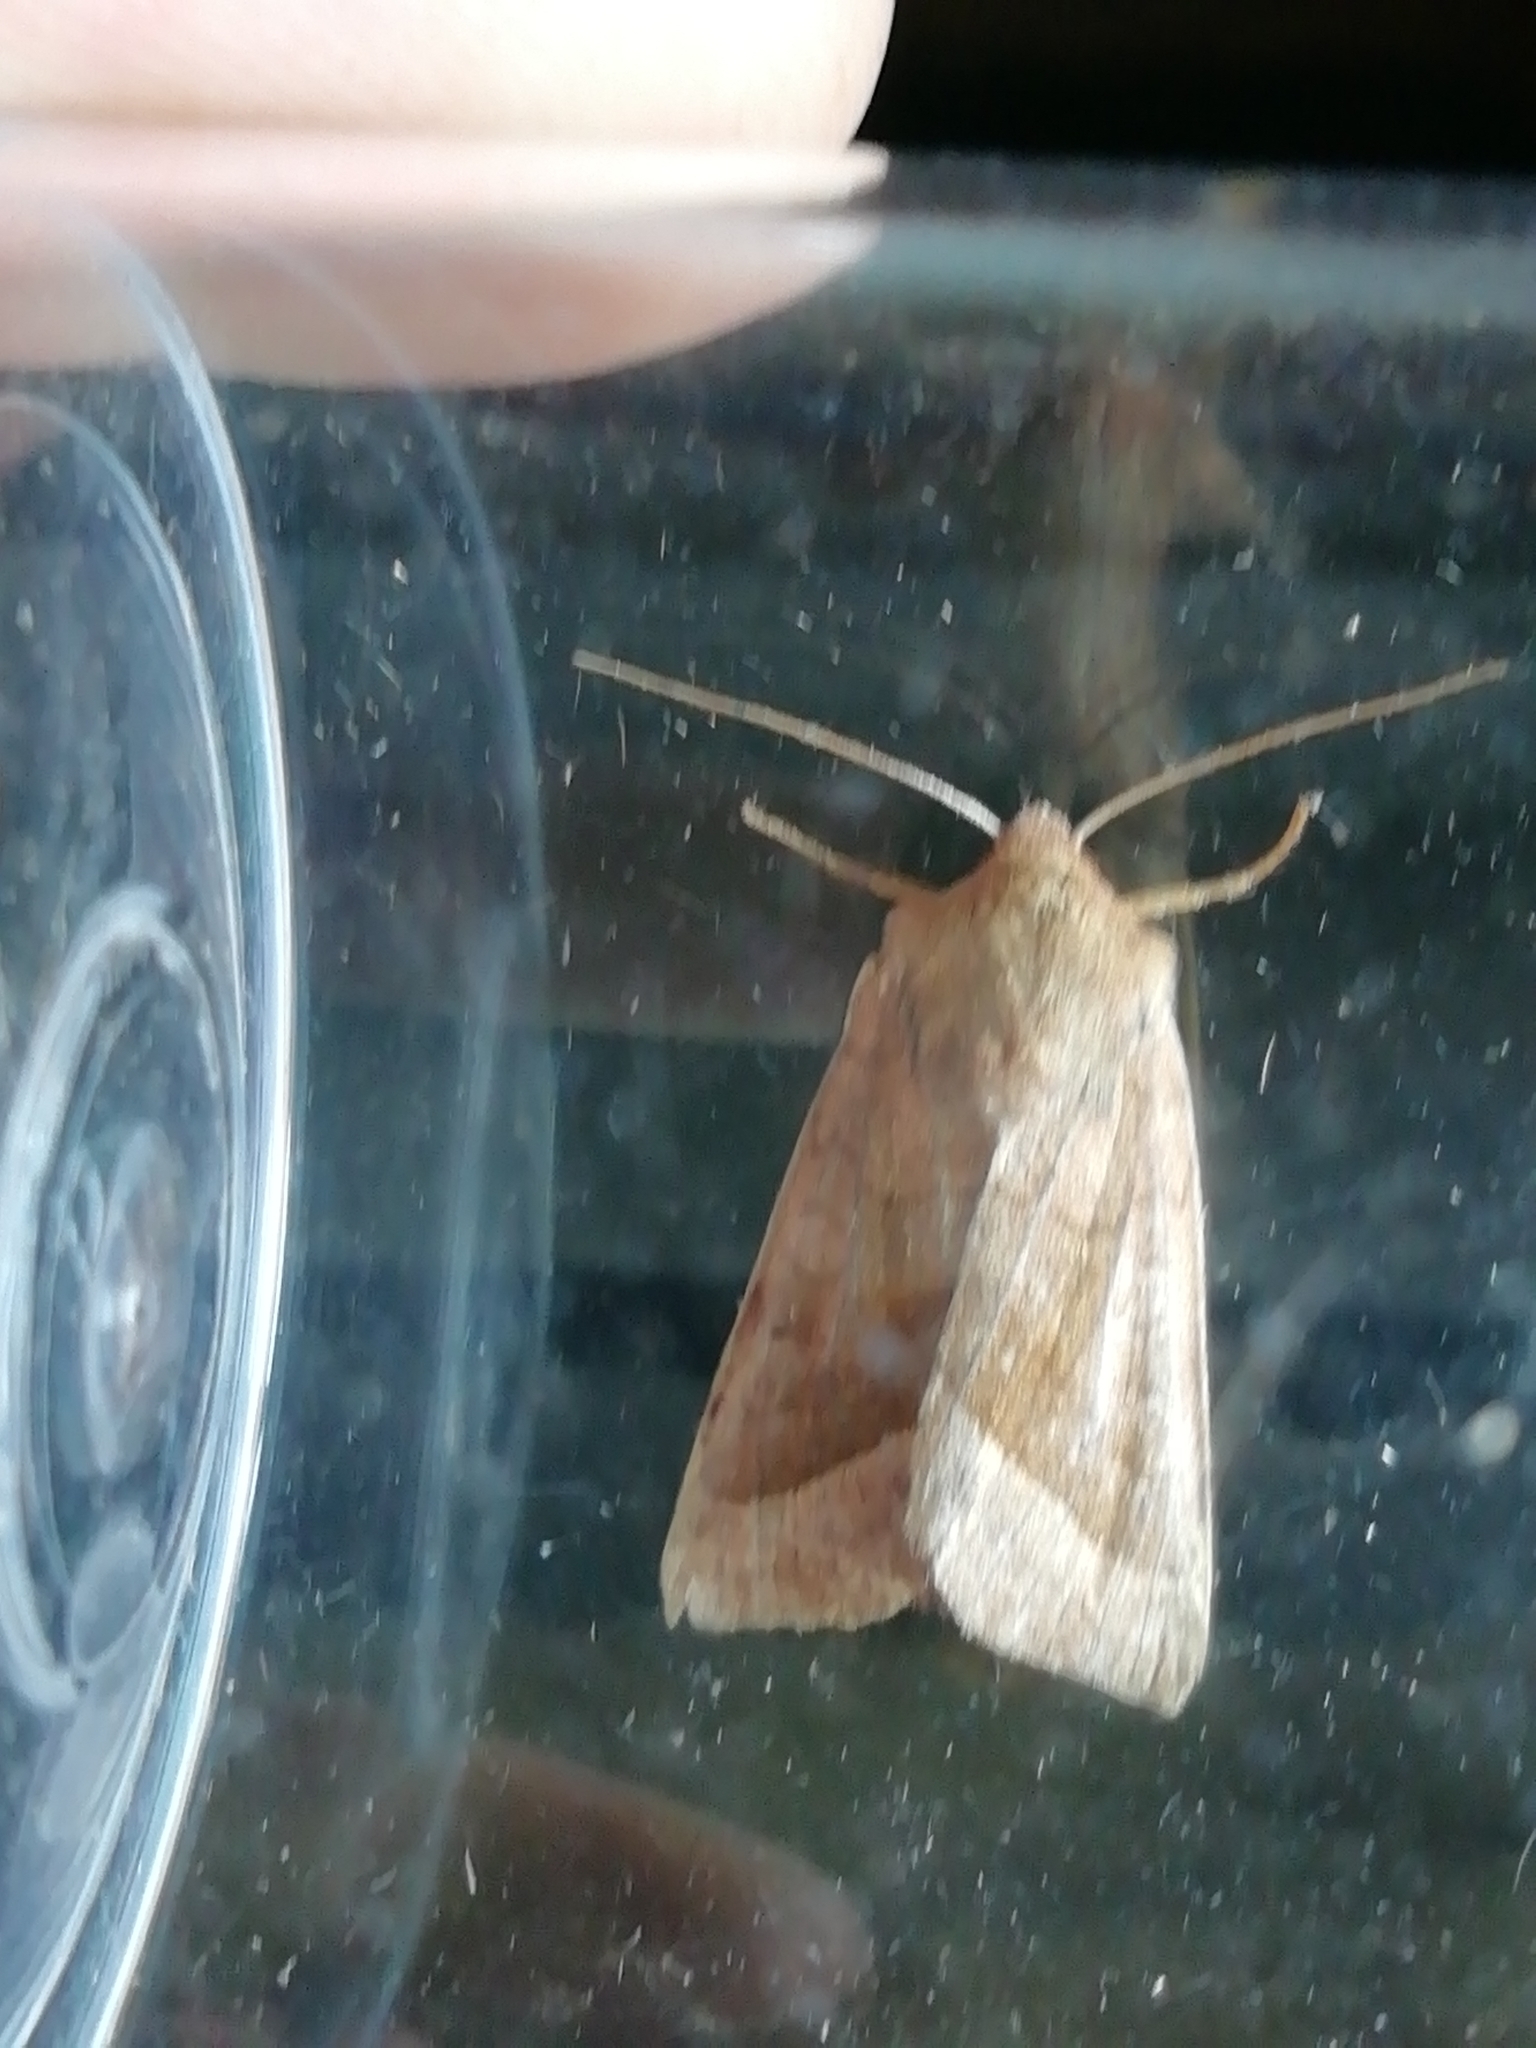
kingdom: Animalia
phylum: Arthropoda
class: Insecta
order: Lepidoptera
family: Noctuidae
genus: Hydraecia
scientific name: Hydraecia micacea
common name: Rosy rustic
